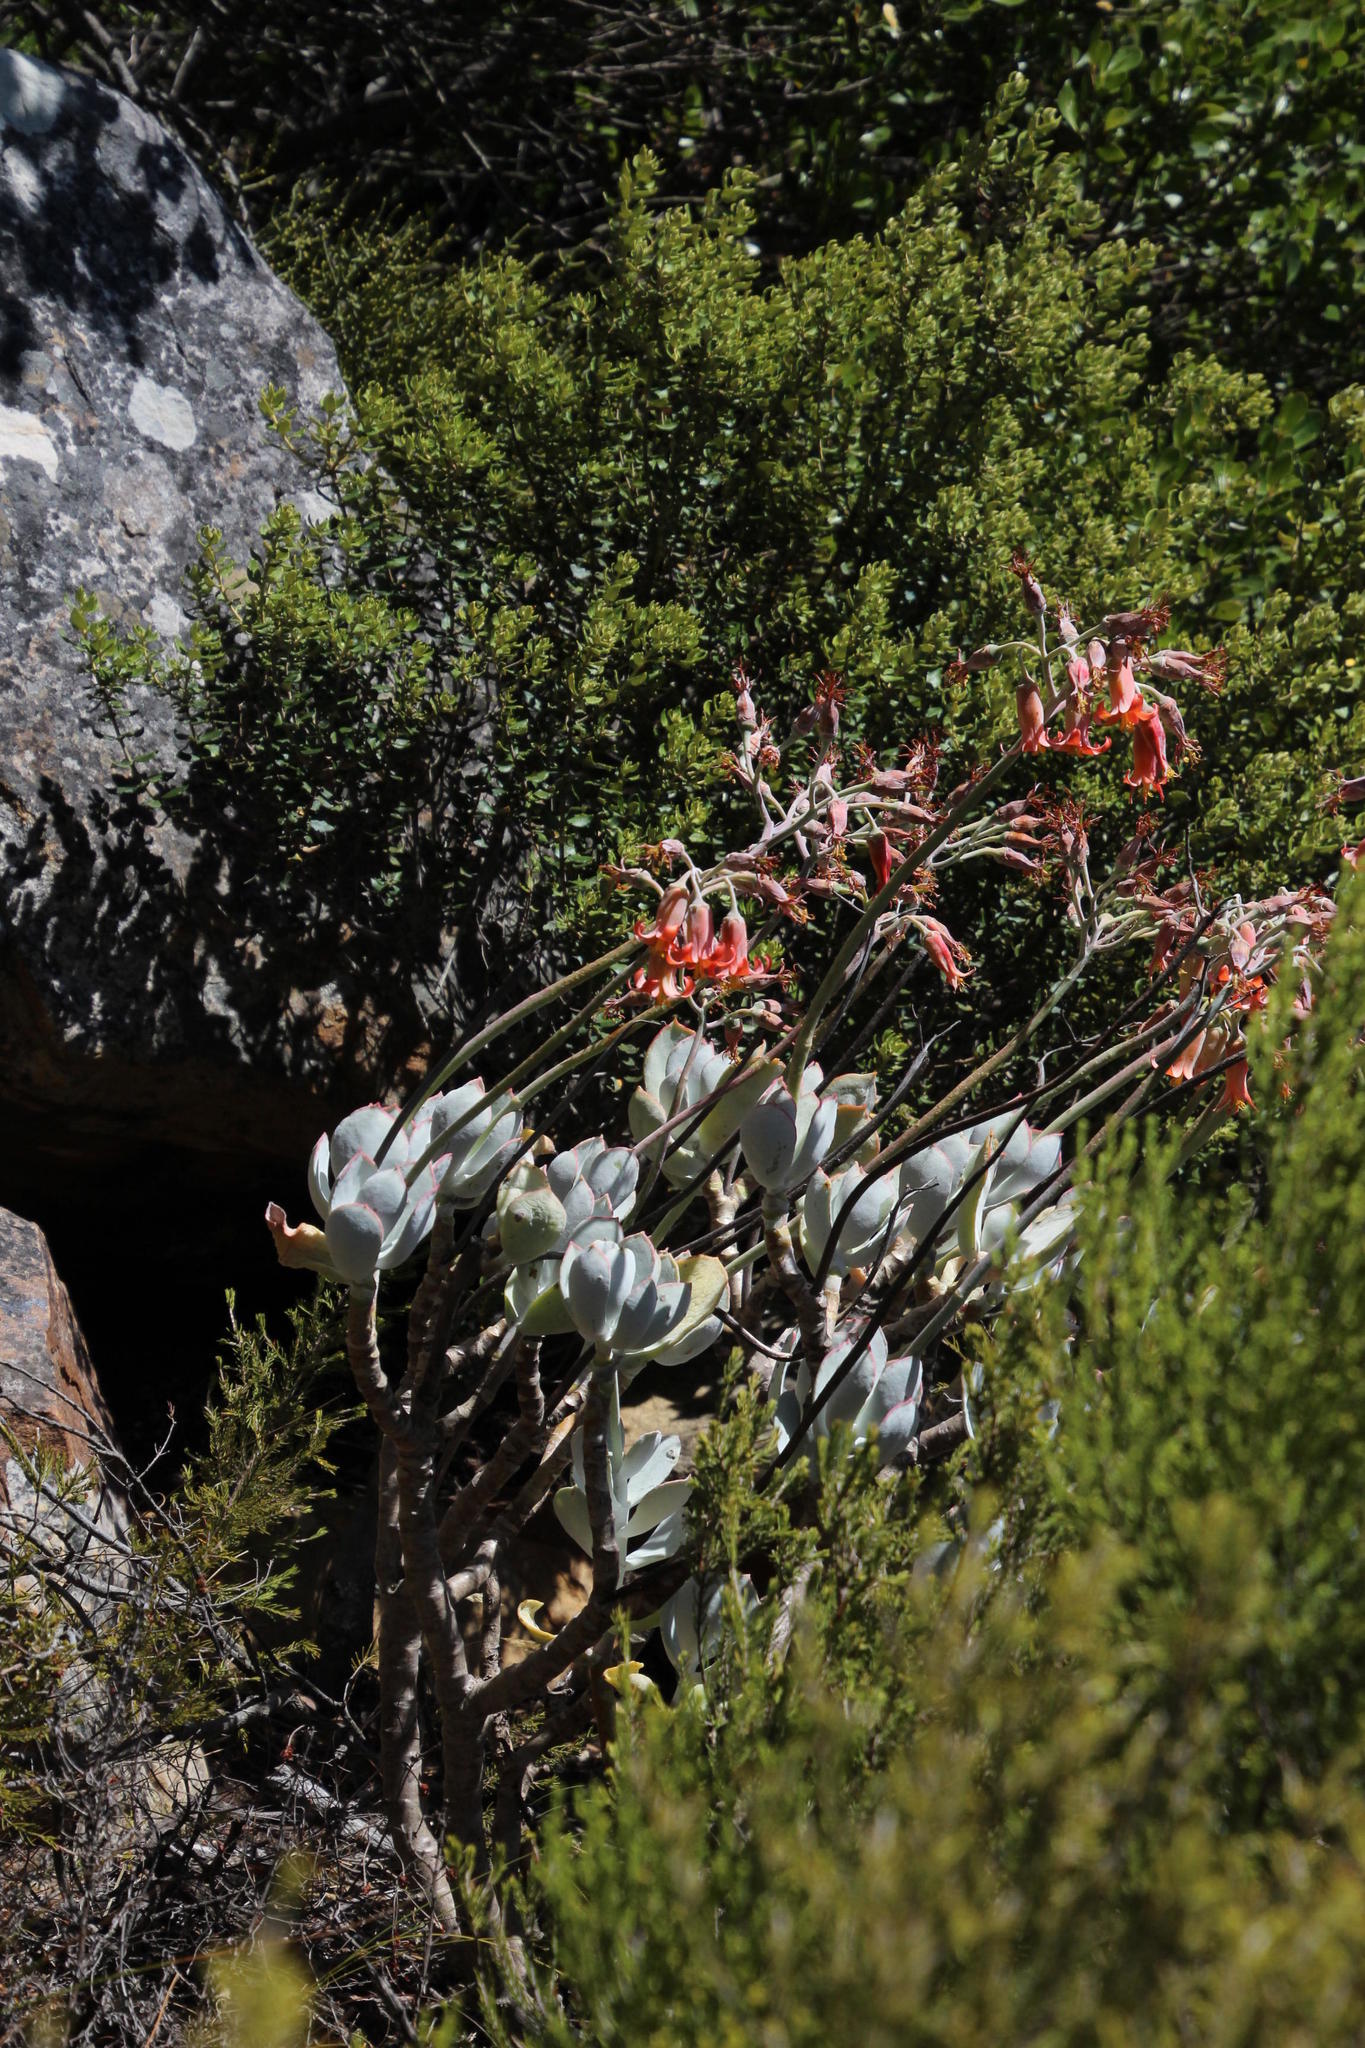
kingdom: Plantae
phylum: Tracheophyta
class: Magnoliopsida
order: Saxifragales
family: Crassulaceae
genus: Cotyledon
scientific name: Cotyledon orbiculata
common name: Pig's ear
